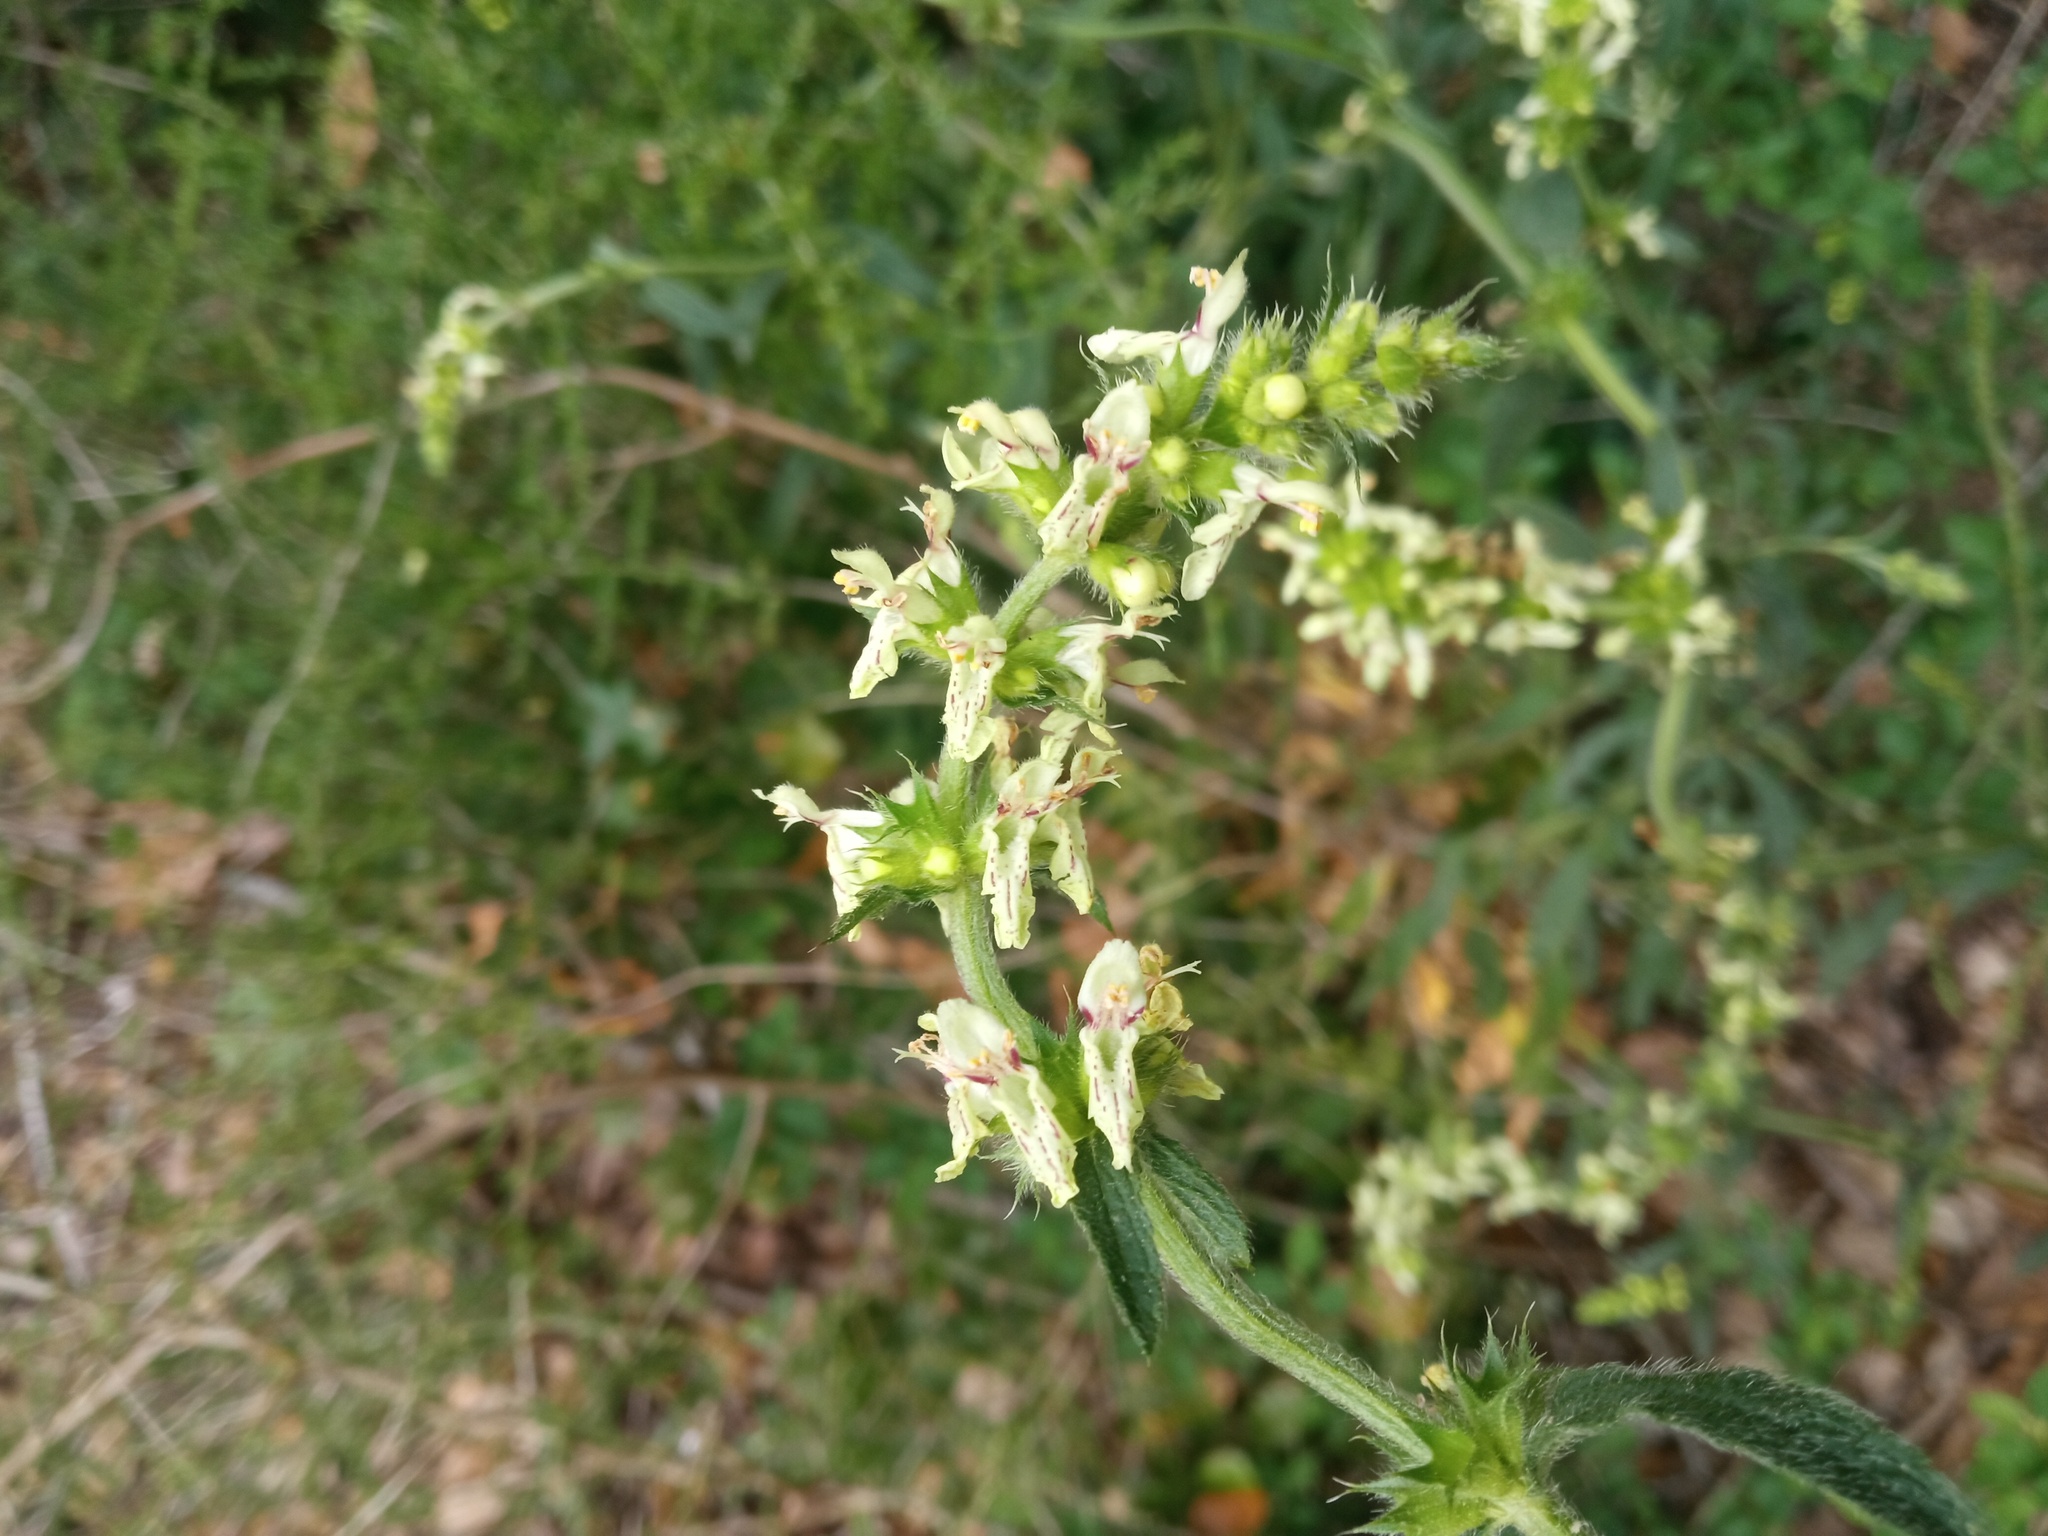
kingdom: Plantae
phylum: Tracheophyta
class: Magnoliopsida
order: Lamiales
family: Lamiaceae
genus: Stachys
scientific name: Stachys recta
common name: Perennial yellow-woundwort
